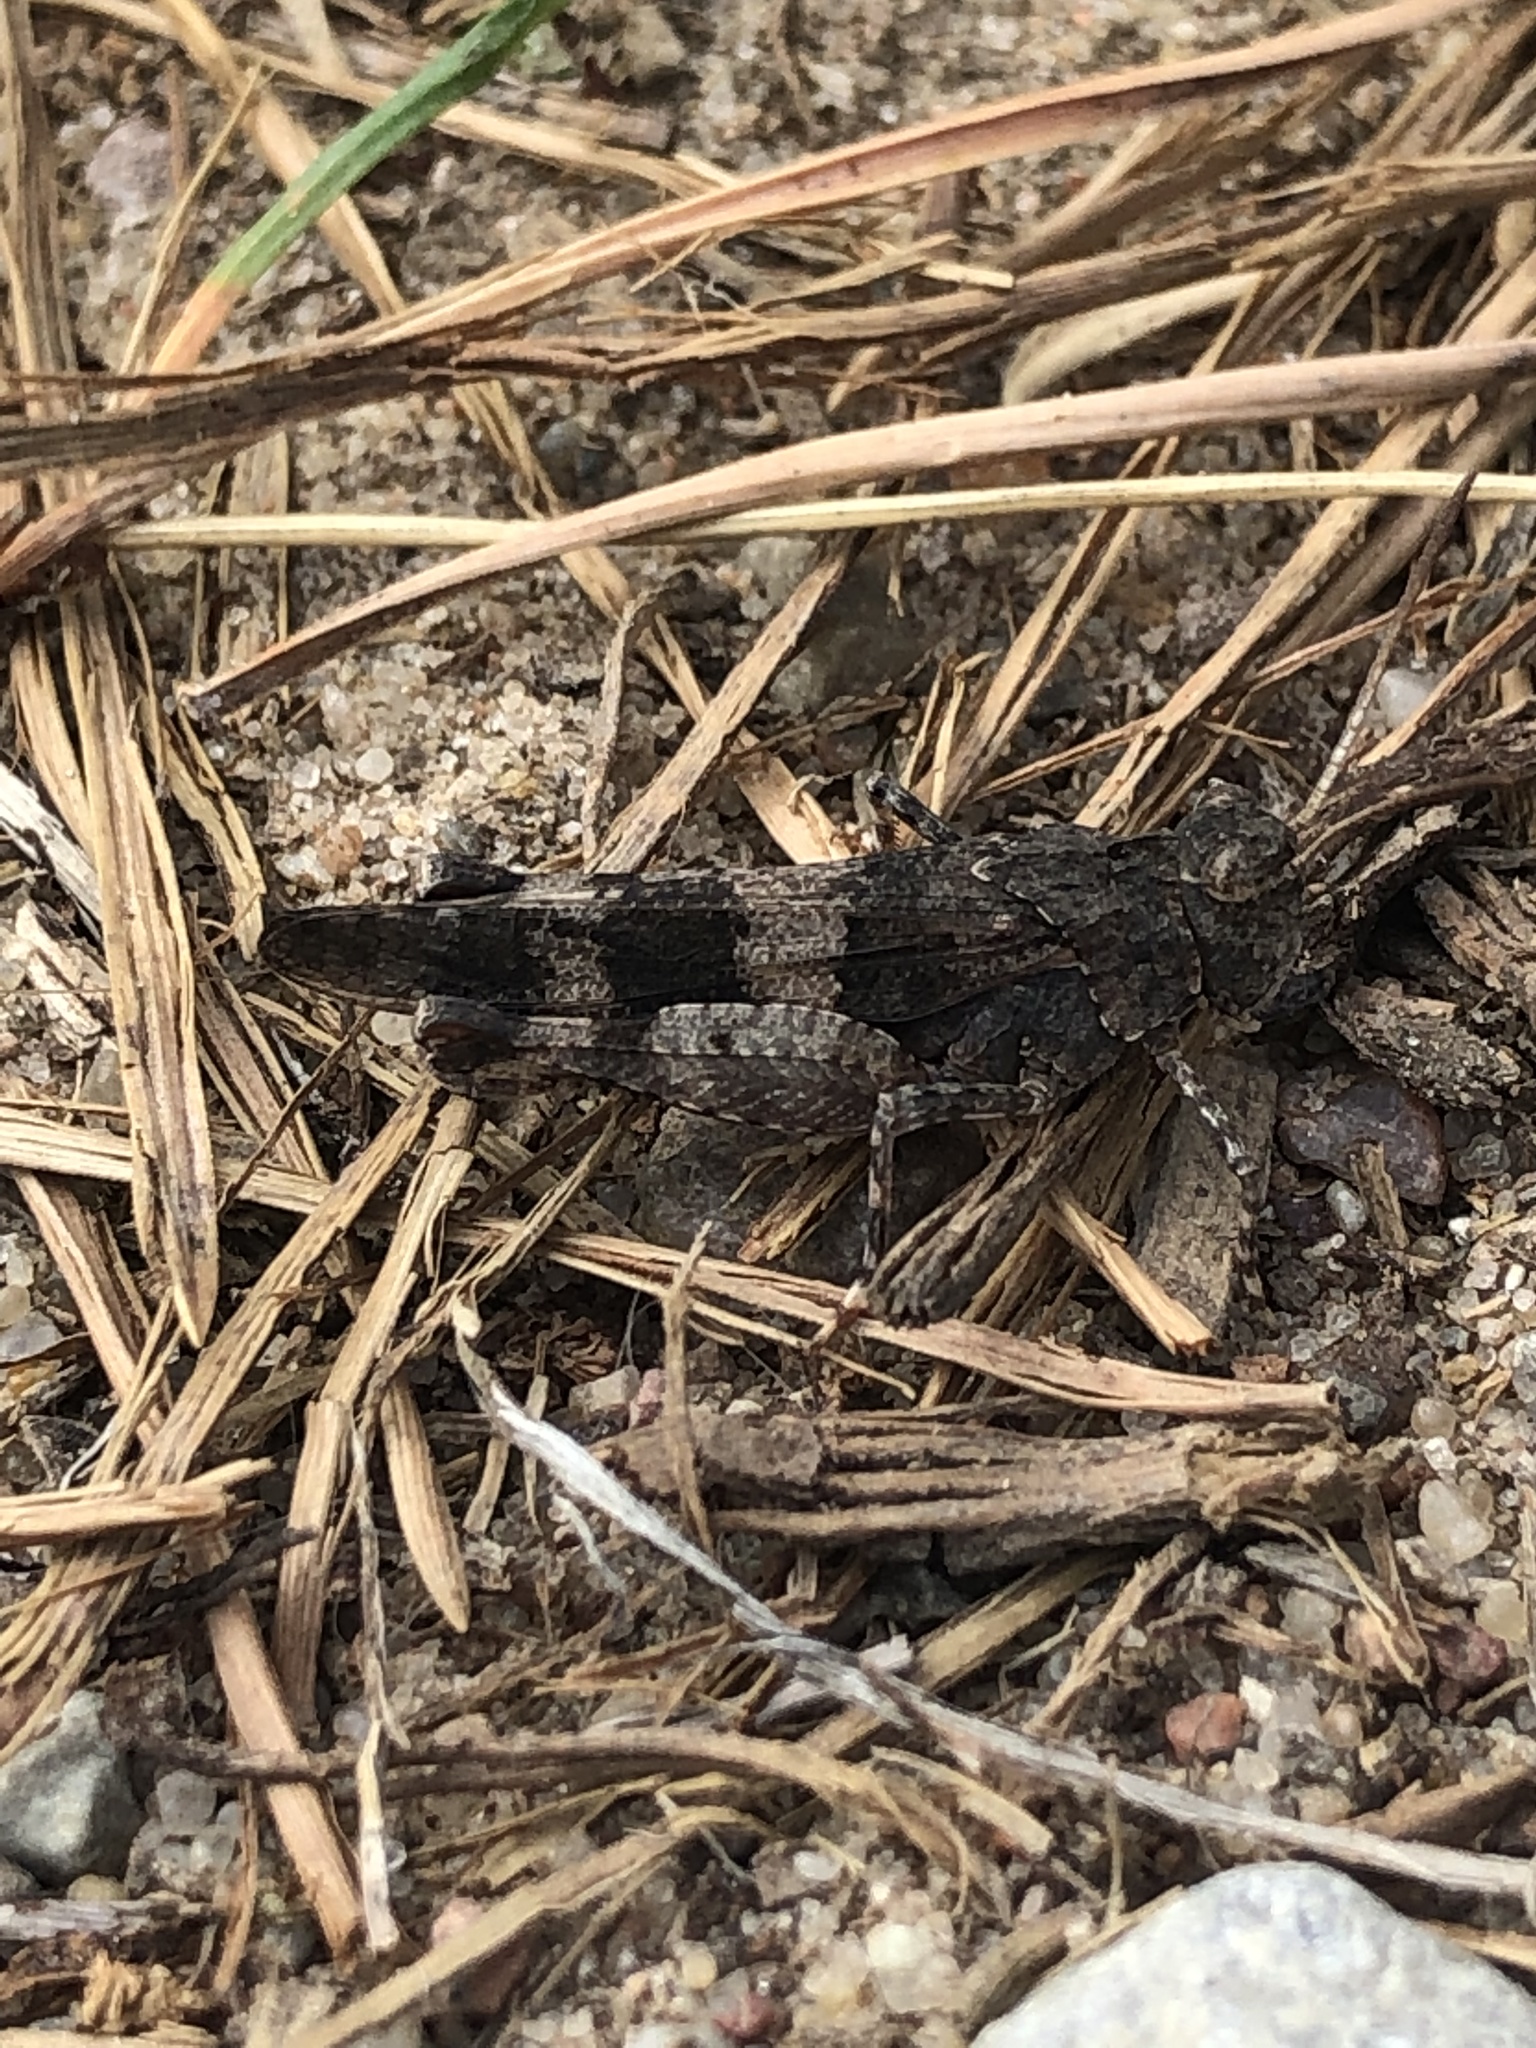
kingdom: Animalia
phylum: Arthropoda
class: Insecta
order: Orthoptera
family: Acrididae
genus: Oedipoda
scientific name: Oedipoda caerulescens
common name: Blue-winged grasshopper
